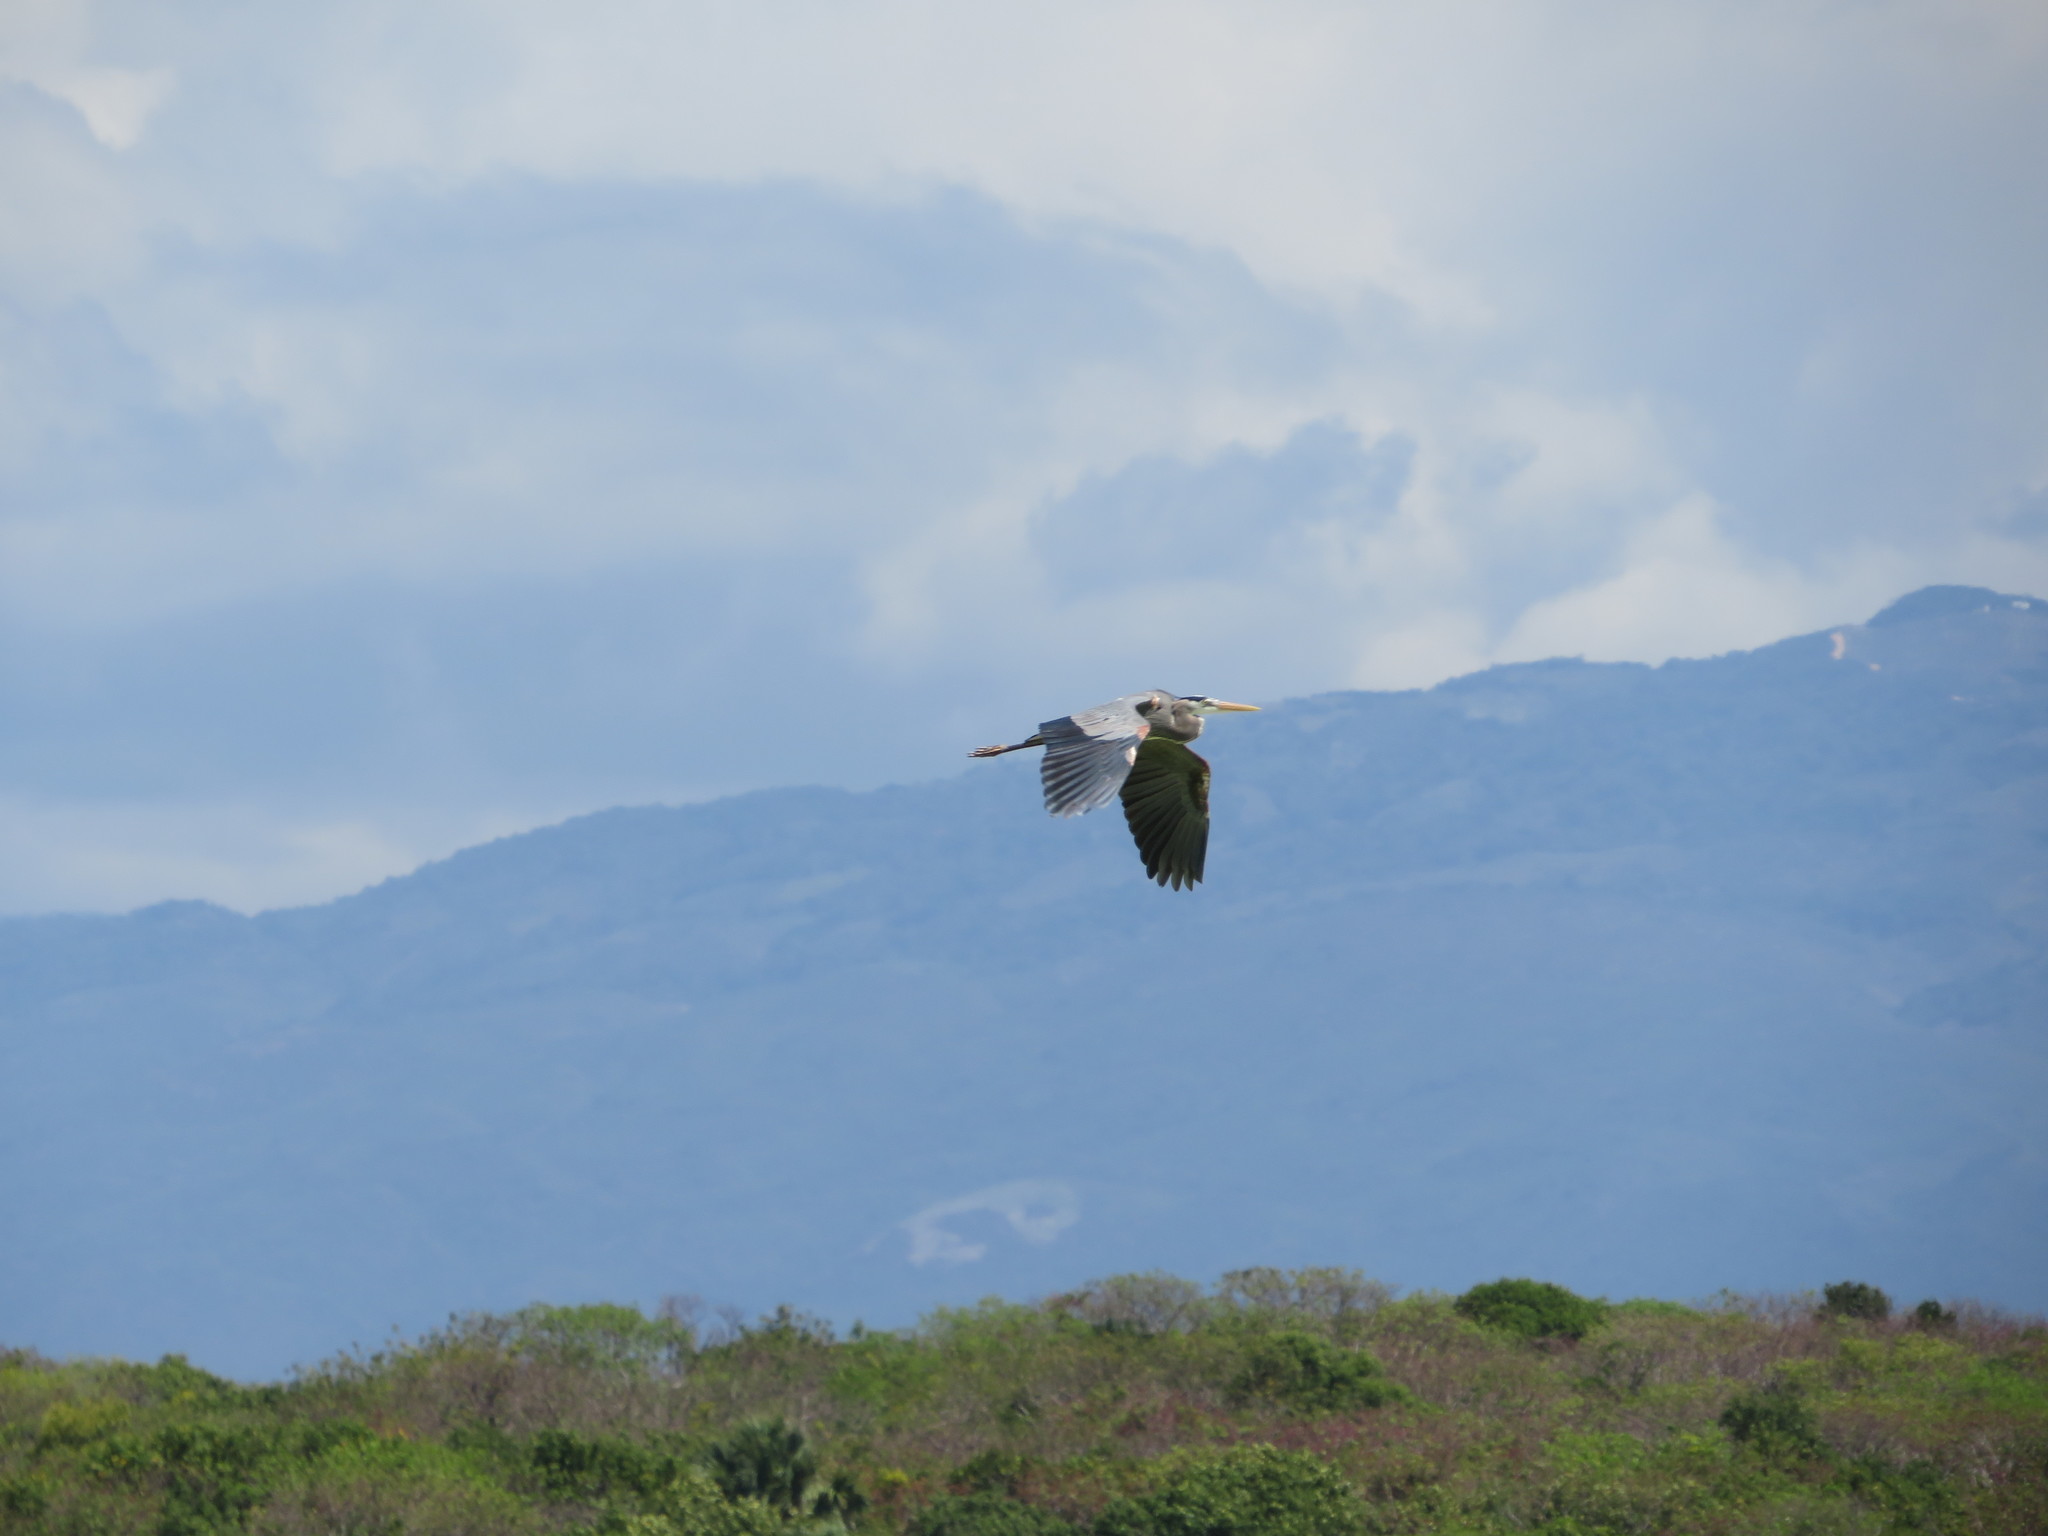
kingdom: Animalia
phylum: Chordata
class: Aves
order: Pelecaniformes
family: Ardeidae
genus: Ardea
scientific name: Ardea herodias
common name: Great blue heron
